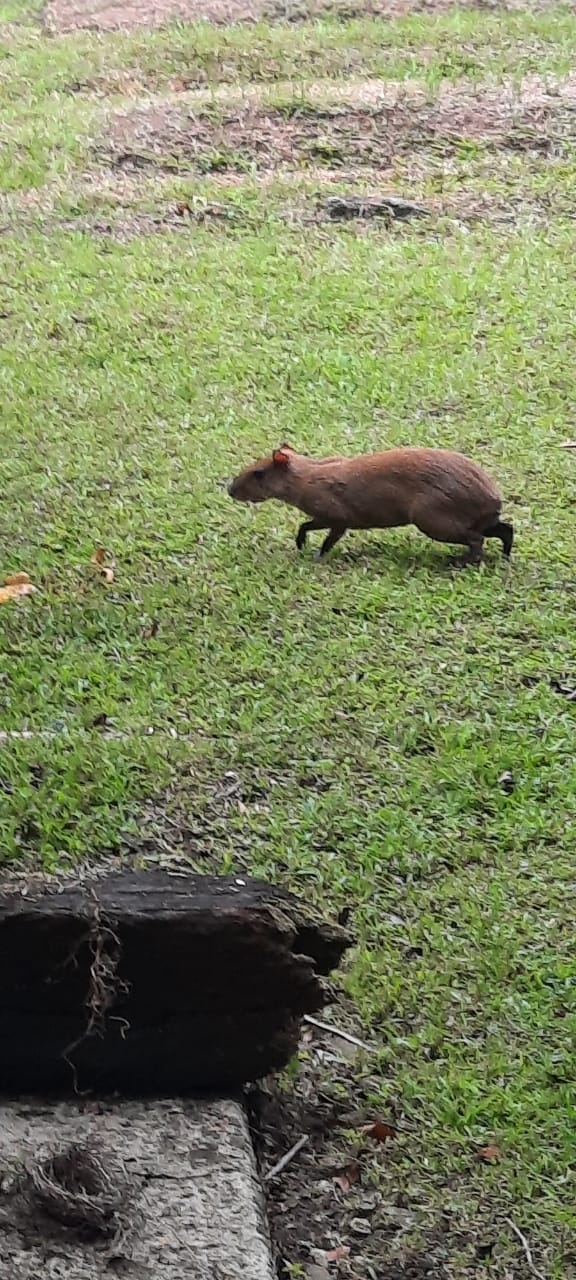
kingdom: Animalia
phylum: Chordata
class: Mammalia
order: Rodentia
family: Dasyproctidae
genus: Dasyprocta
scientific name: Dasyprocta punctata
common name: Central american agouti
